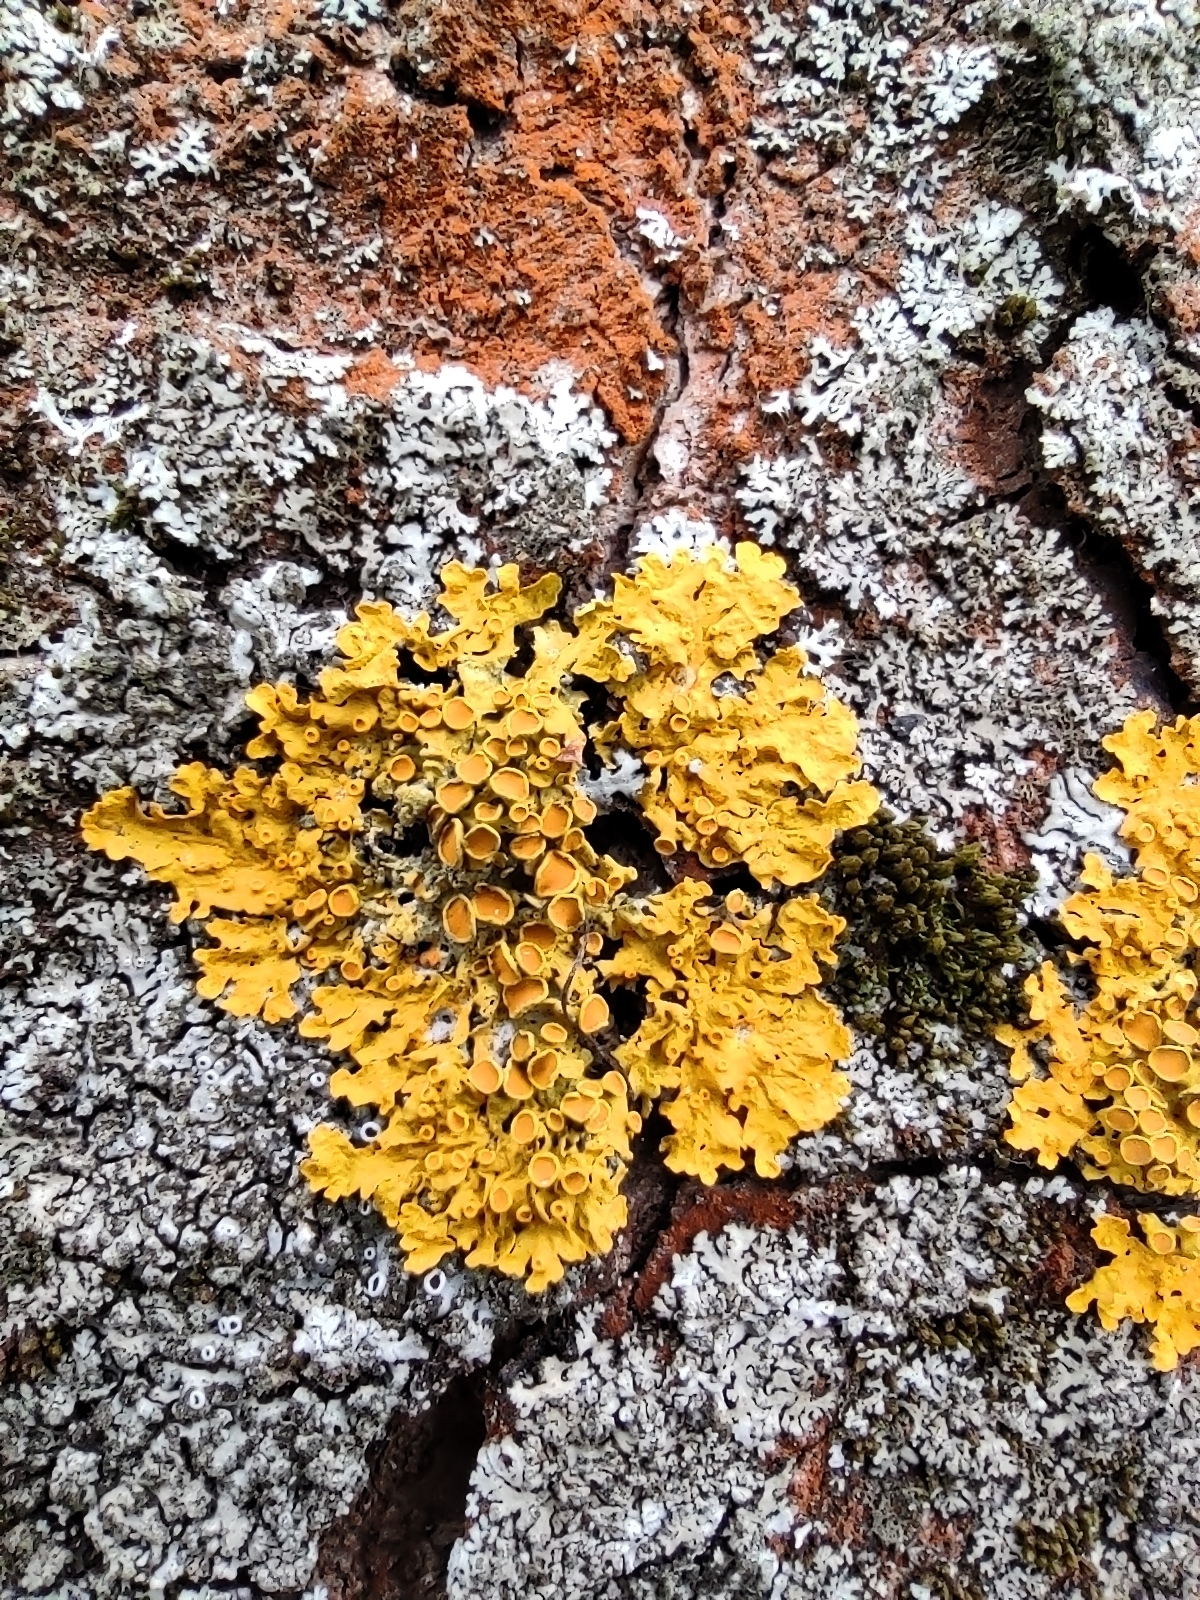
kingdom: Fungi
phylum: Ascomycota
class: Lecanoromycetes
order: Teloschistales
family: Teloschistaceae
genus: Xanthoria
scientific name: Xanthoria parietina
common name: Common orange lichen
